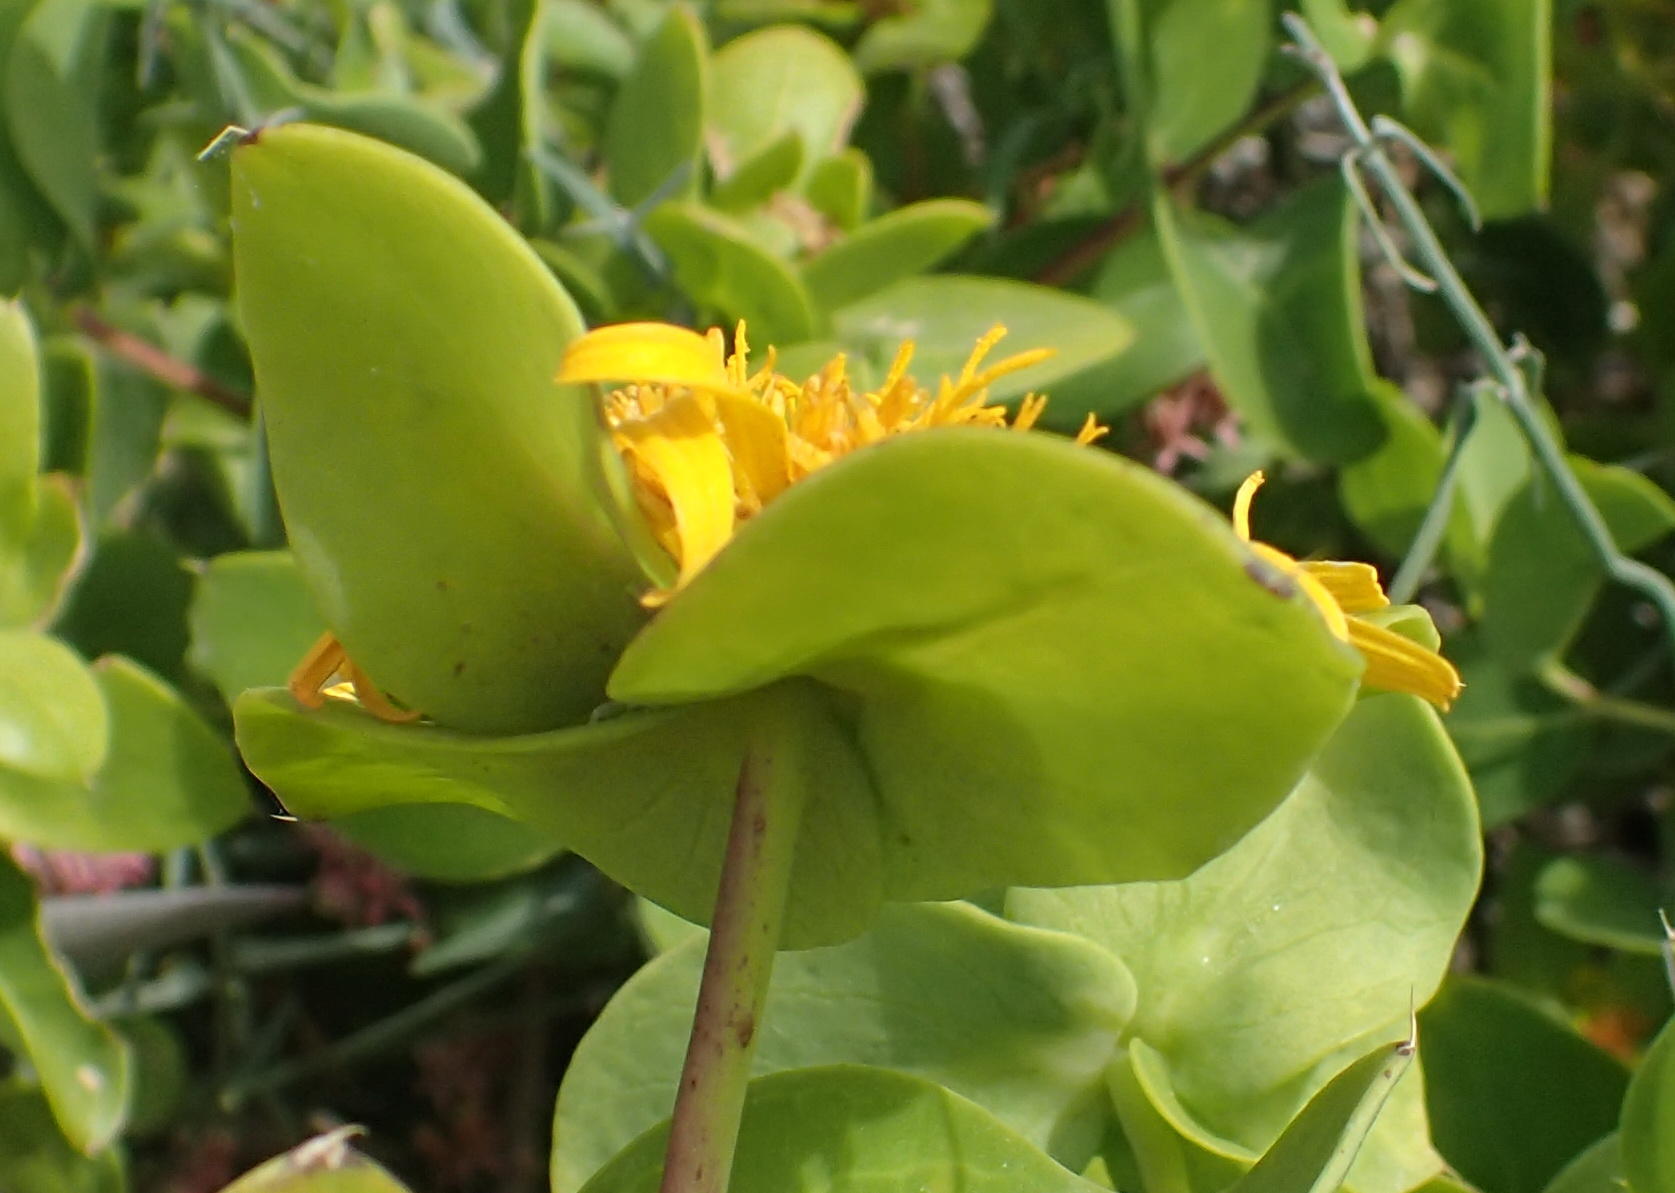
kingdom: Plantae
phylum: Tracheophyta
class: Magnoliopsida
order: Asterales
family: Asteraceae
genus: Didelta
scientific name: Didelta spinosa
